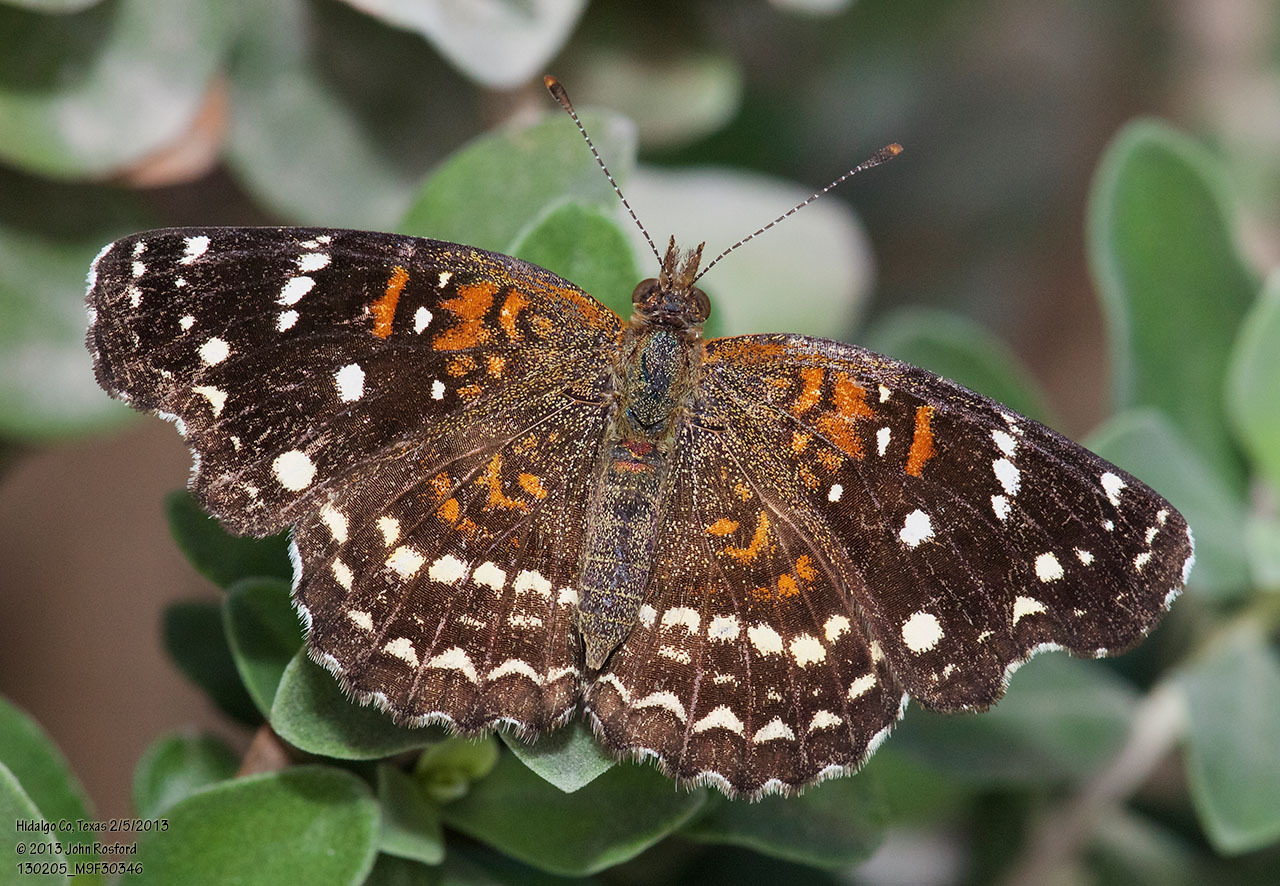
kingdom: Animalia
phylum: Arthropoda
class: Insecta
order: Lepidoptera
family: Nymphalidae
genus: Anthanassa
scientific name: Anthanassa texana
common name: Texan crescent
